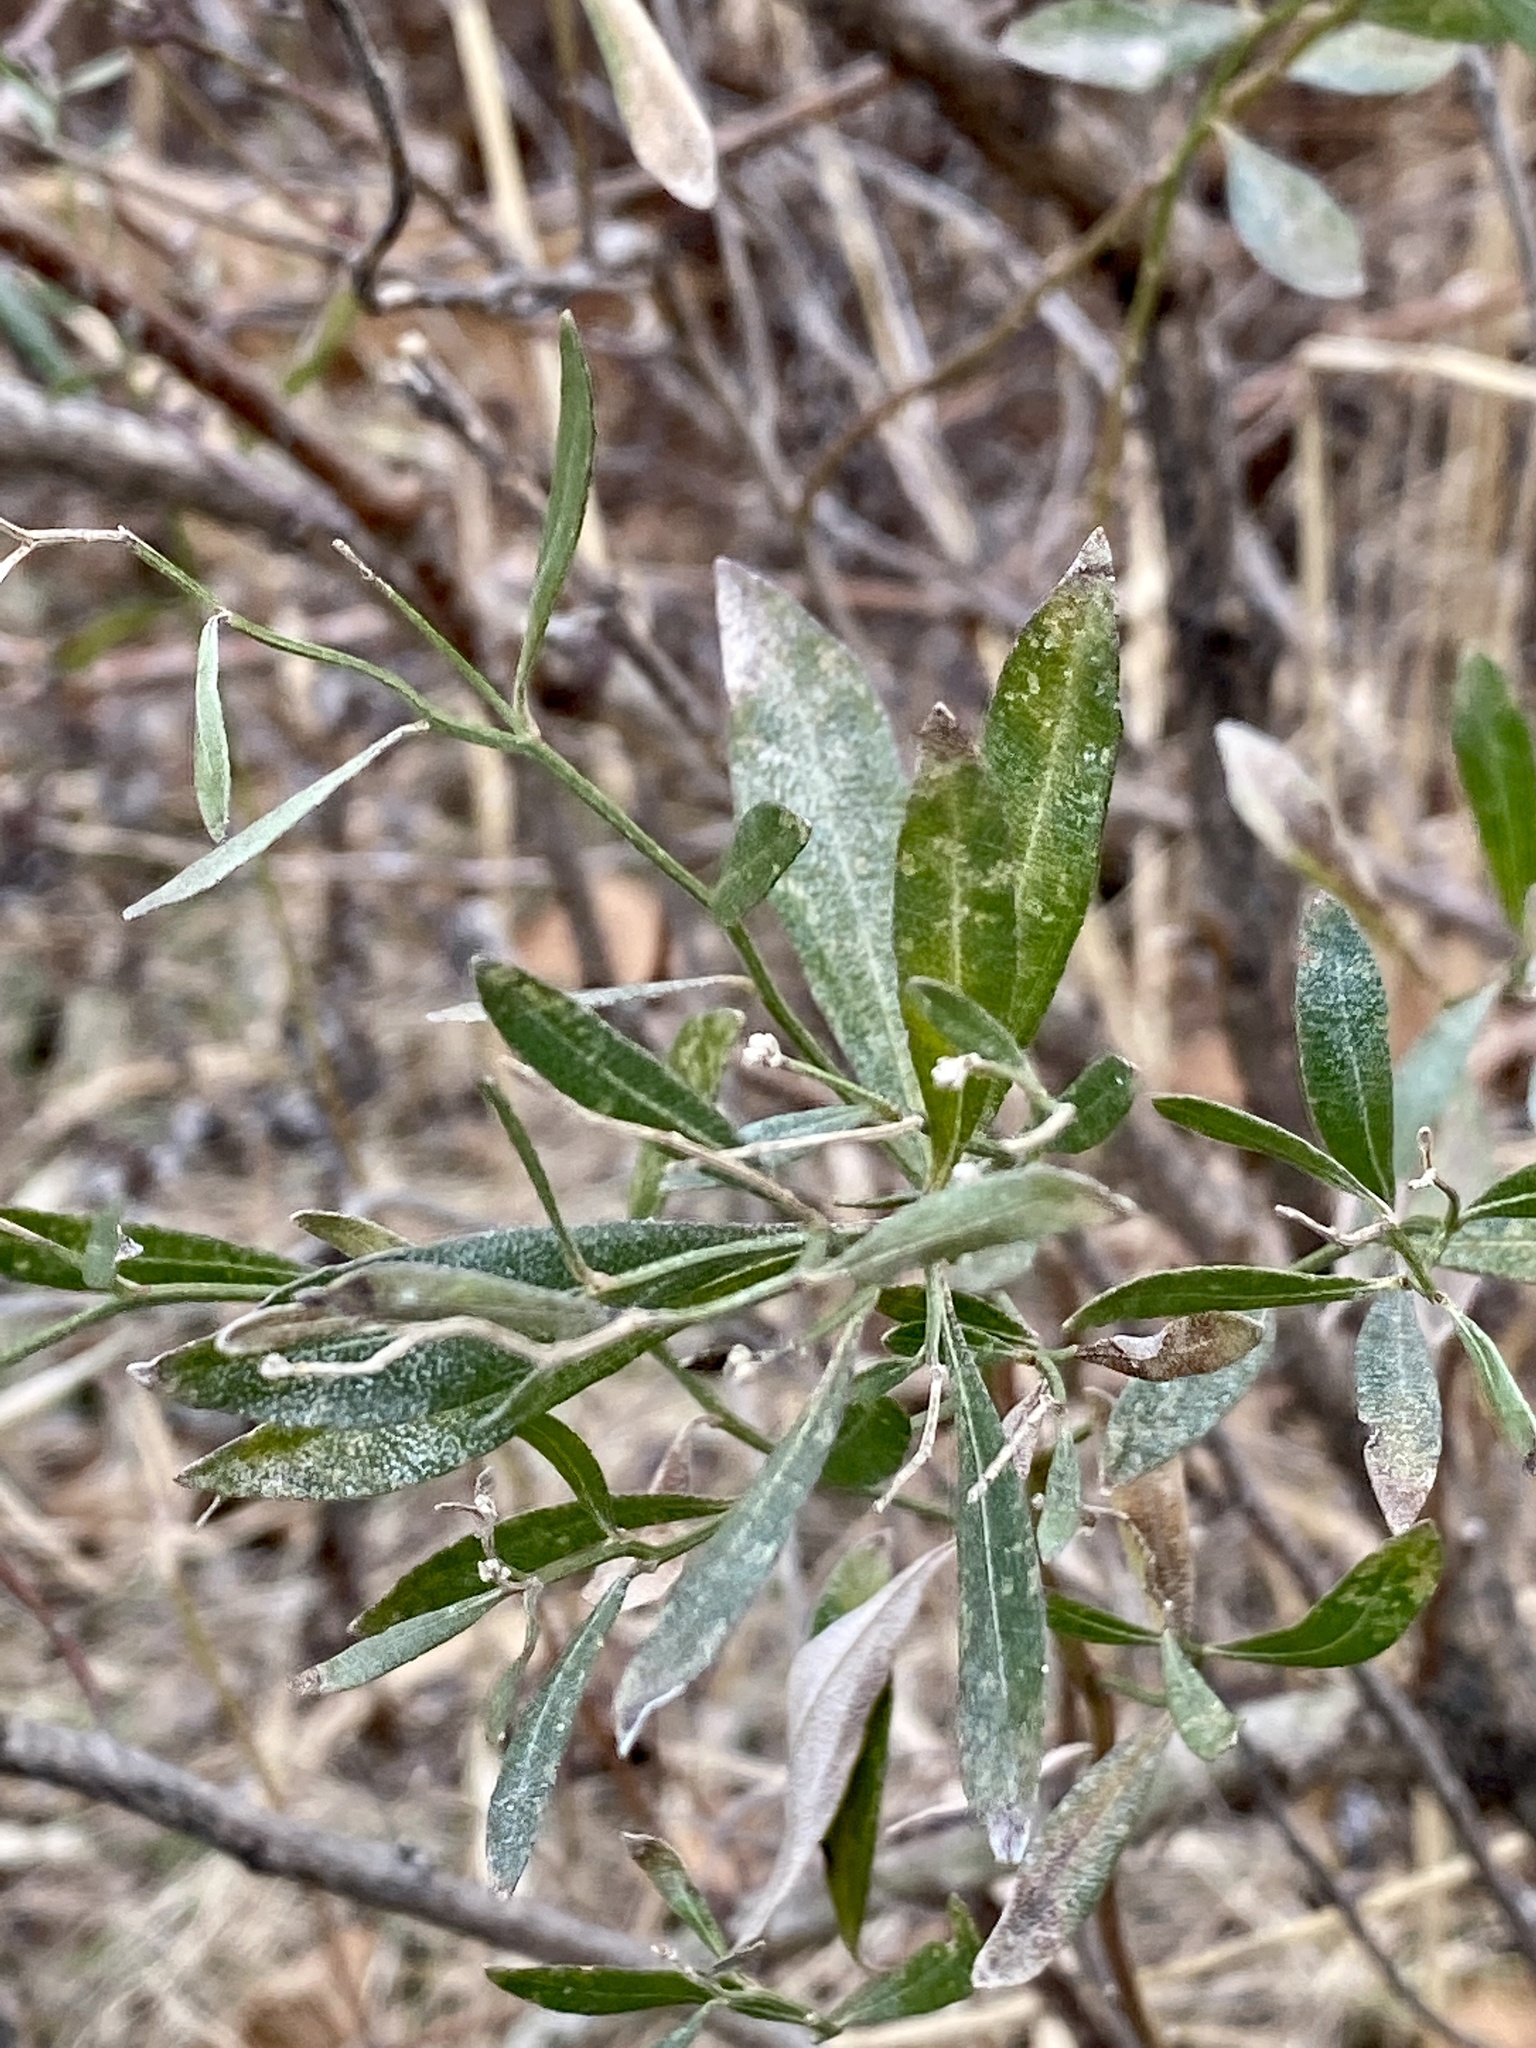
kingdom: Plantae
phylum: Tracheophyta
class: Magnoliopsida
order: Asterales
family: Asteraceae
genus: Baccharis
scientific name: Baccharis halimifolia
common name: Eastern baccharis
